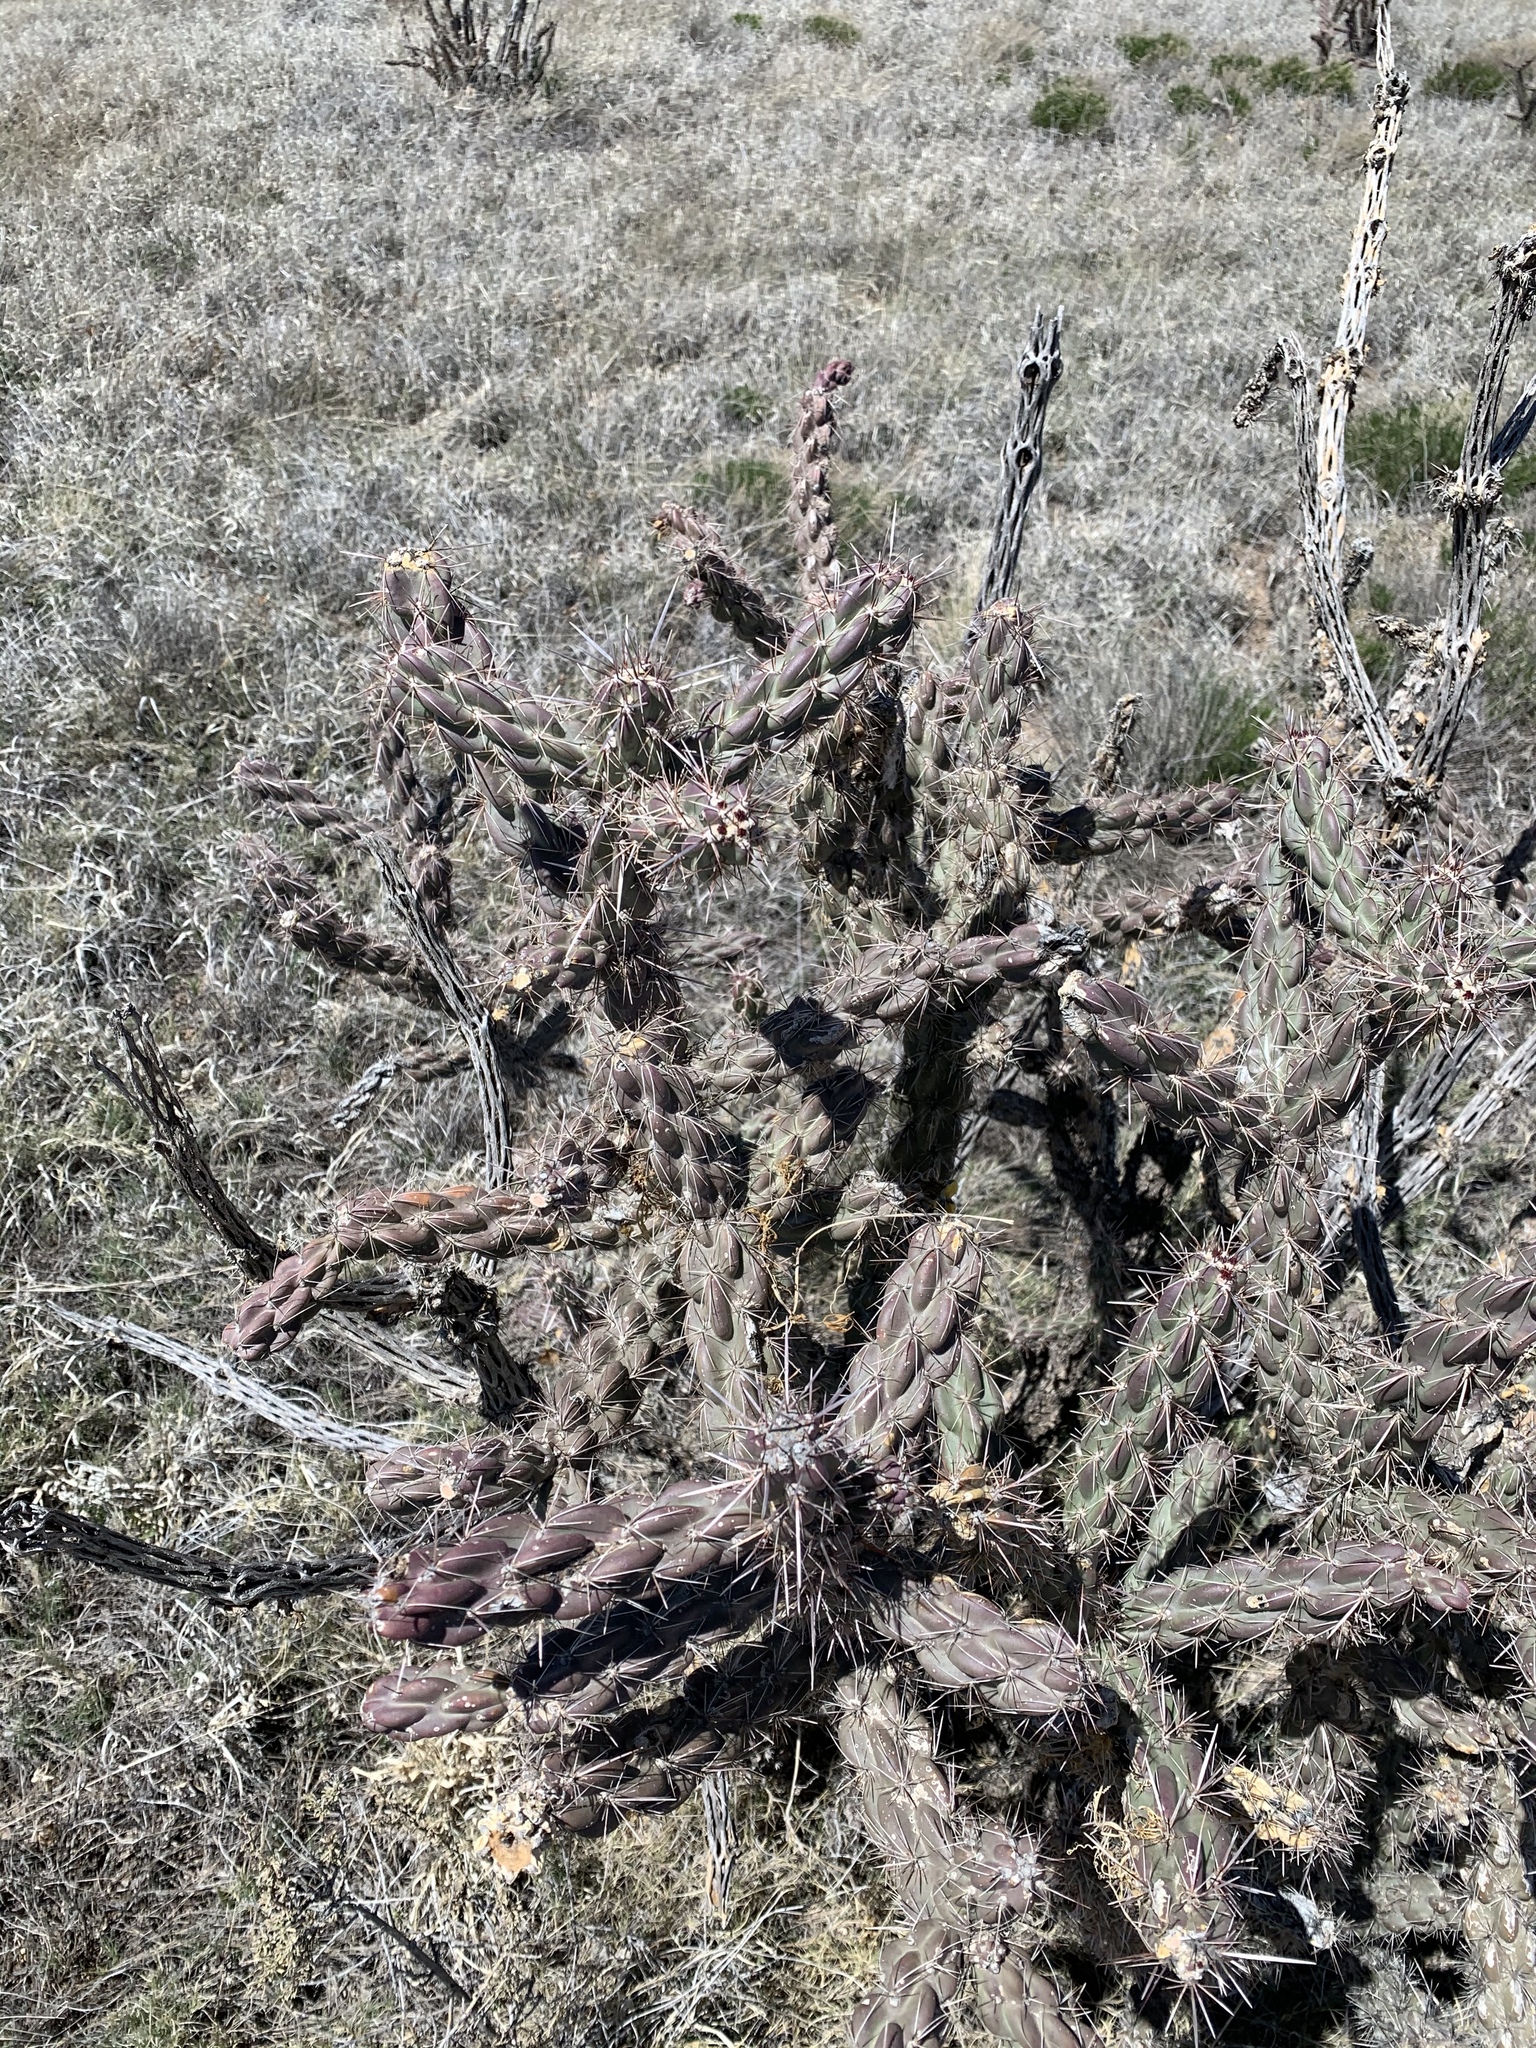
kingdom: Plantae
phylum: Tracheophyta
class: Magnoliopsida
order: Caryophyllales
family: Cactaceae
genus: Cylindropuntia
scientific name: Cylindropuntia imbricata
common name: Candelabrum cactus
